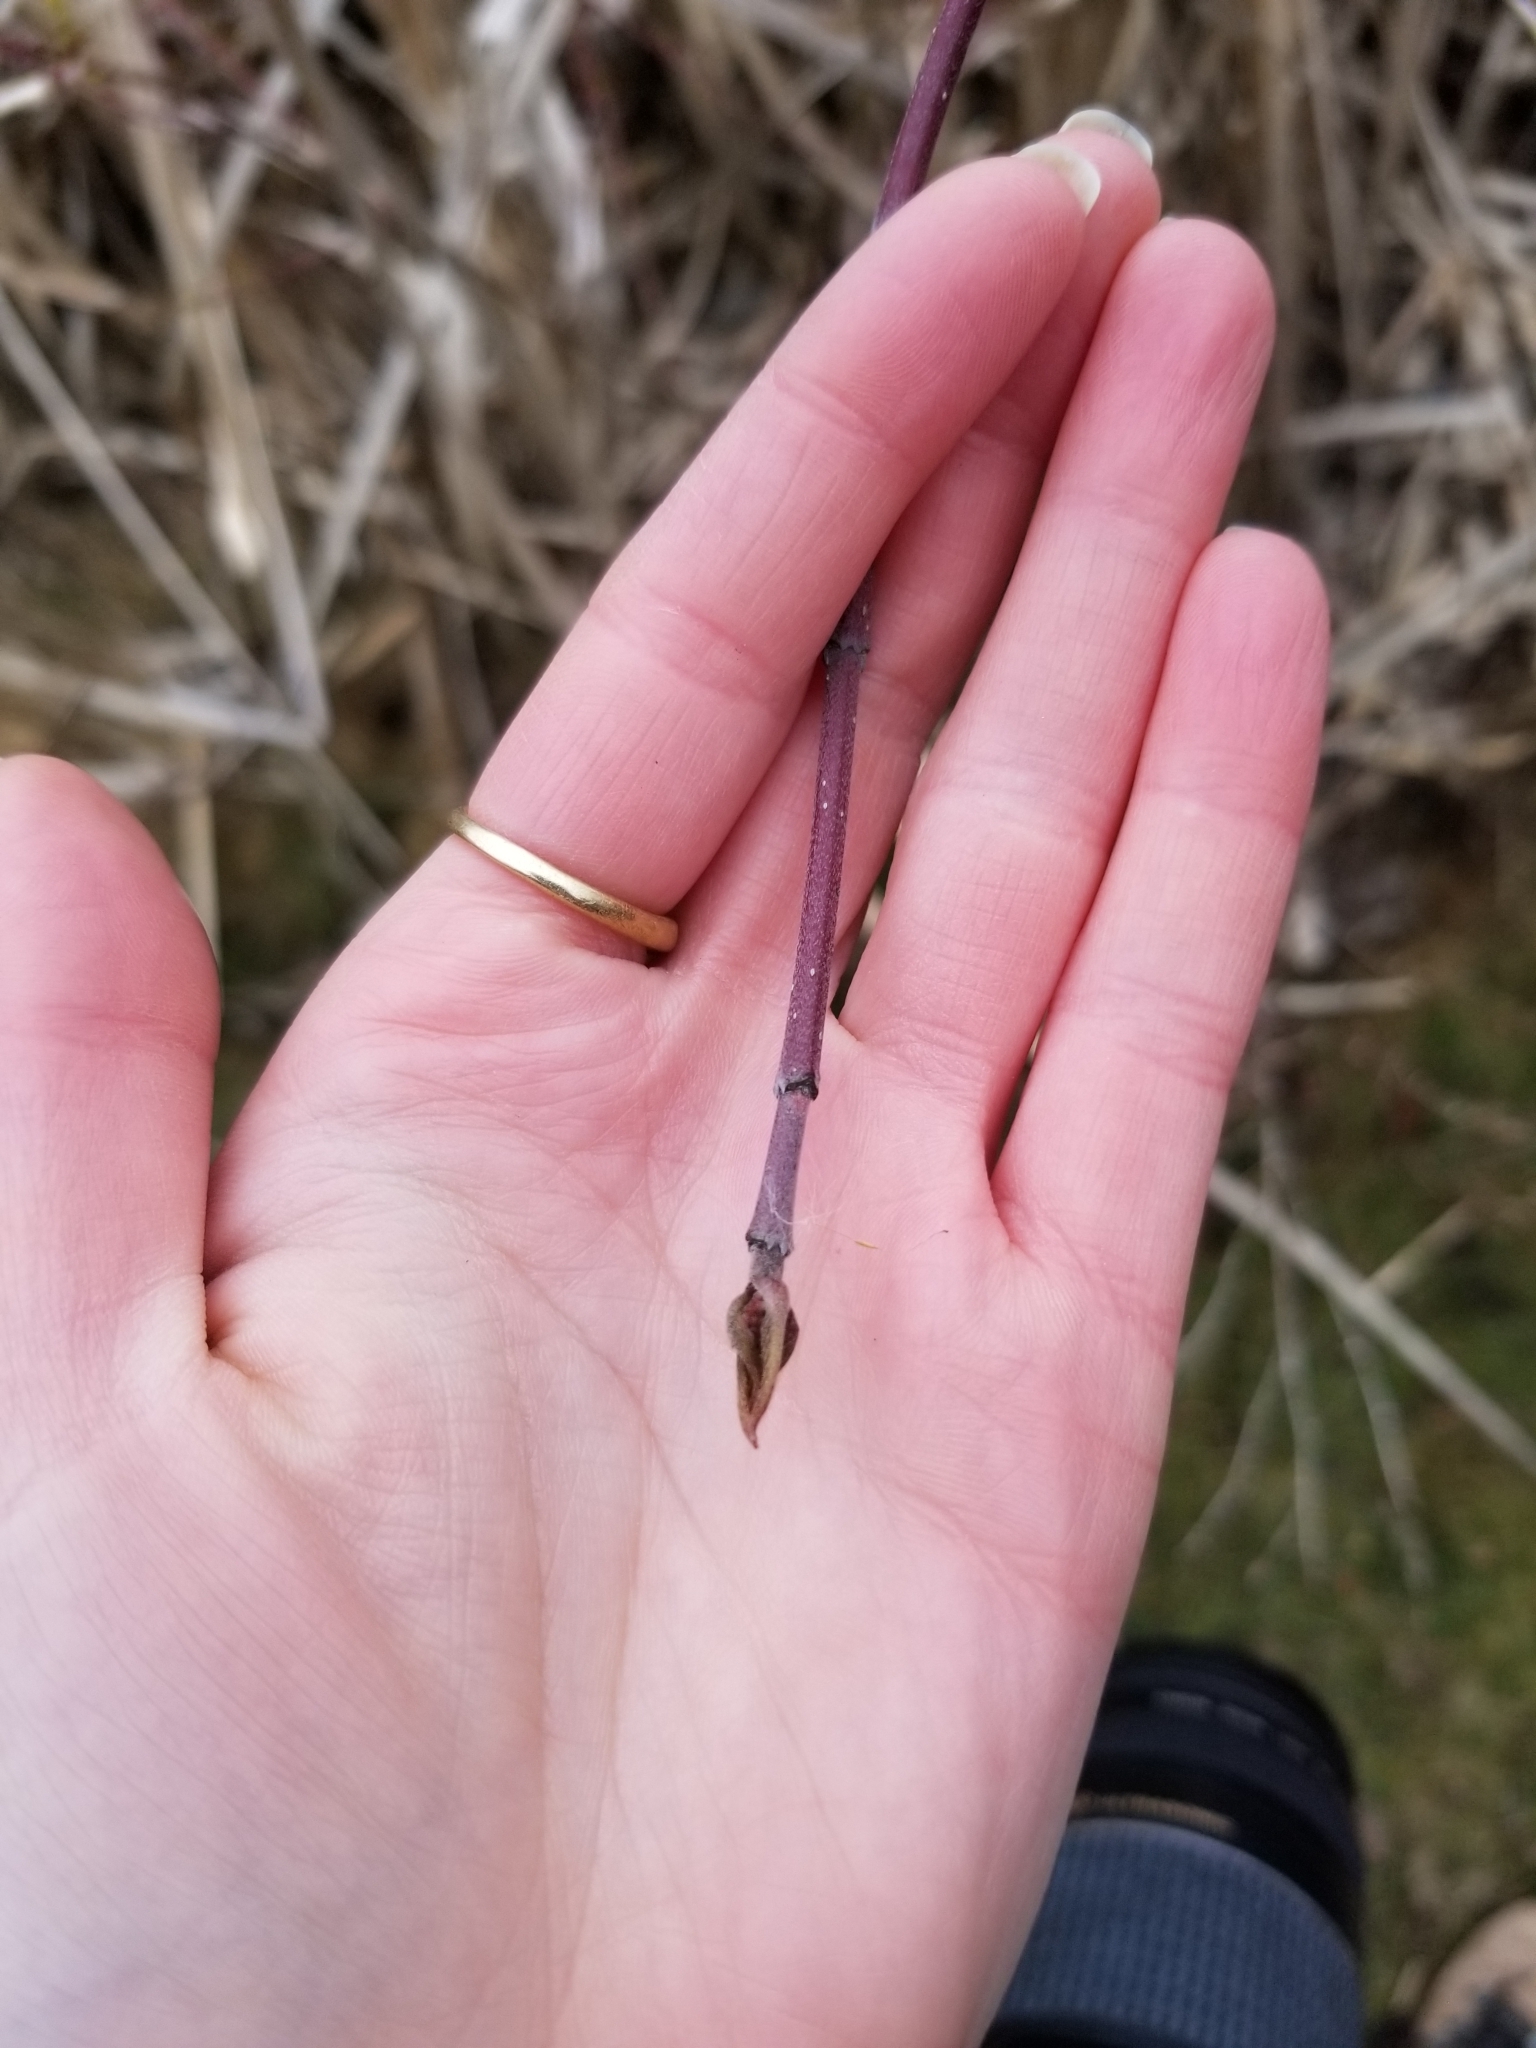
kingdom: Plantae
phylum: Tracheophyta
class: Magnoliopsida
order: Cornales
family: Cornaceae
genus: Cornus
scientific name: Cornus sericea
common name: Red-osier dogwood
